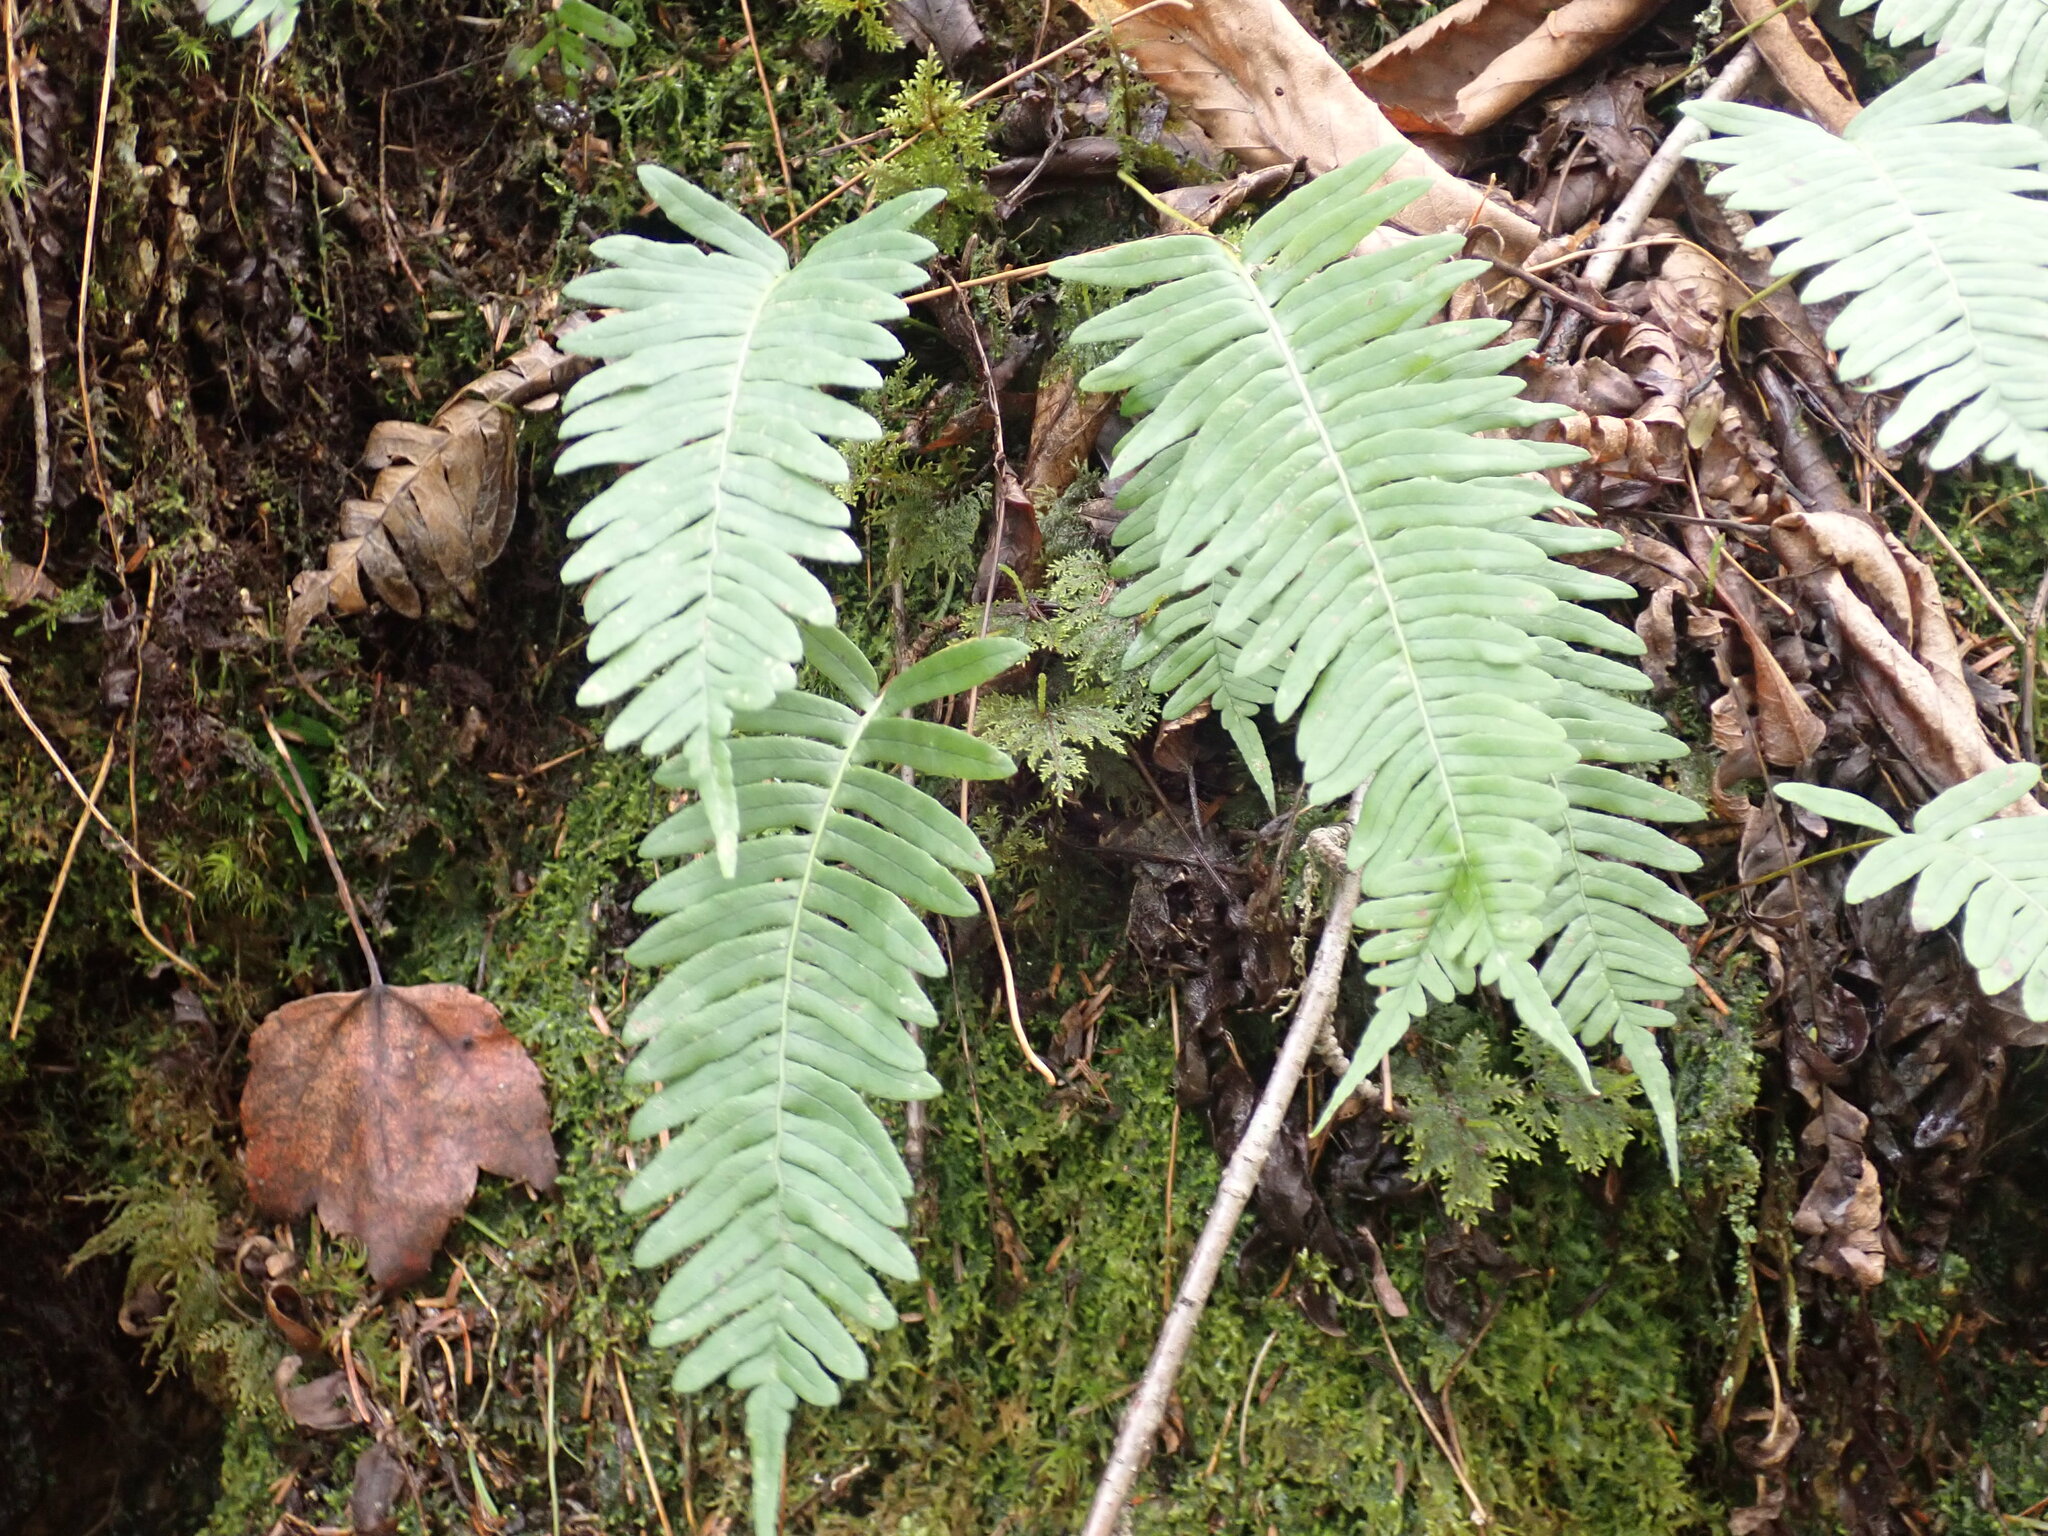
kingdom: Plantae
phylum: Tracheophyta
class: Polypodiopsida
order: Polypodiales
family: Polypodiaceae
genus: Polypodium
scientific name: Polypodium virginianum
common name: American wall fern
